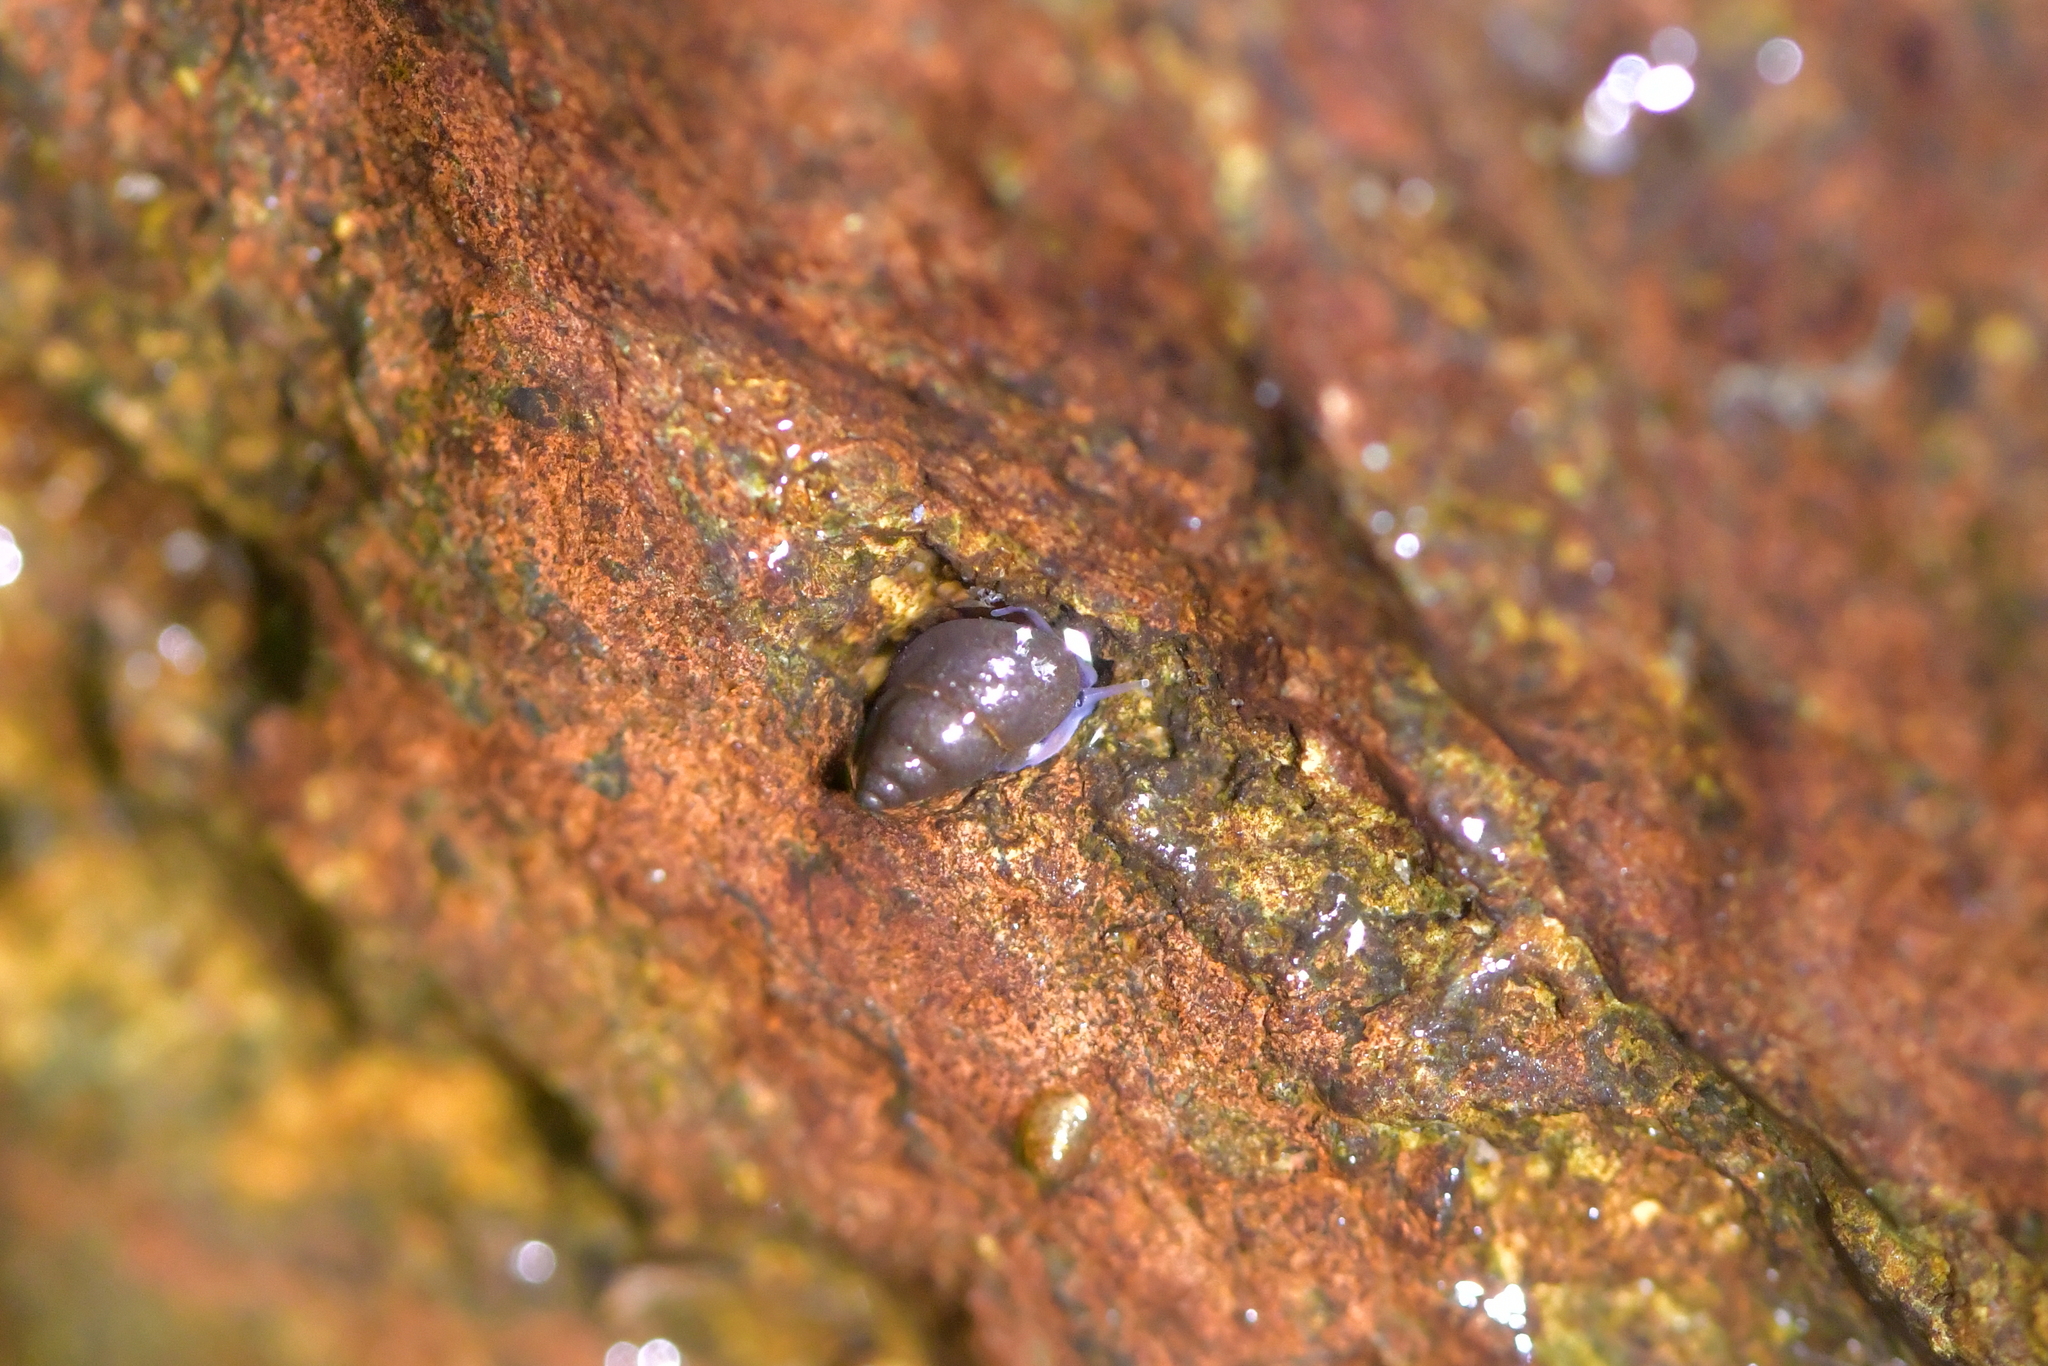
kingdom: Animalia
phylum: Mollusca
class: Gastropoda
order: Littorinimorpha
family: Tateidae
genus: Potamopyrgus
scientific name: Potamopyrgus antipodarum
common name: Jenkins' spire snail
